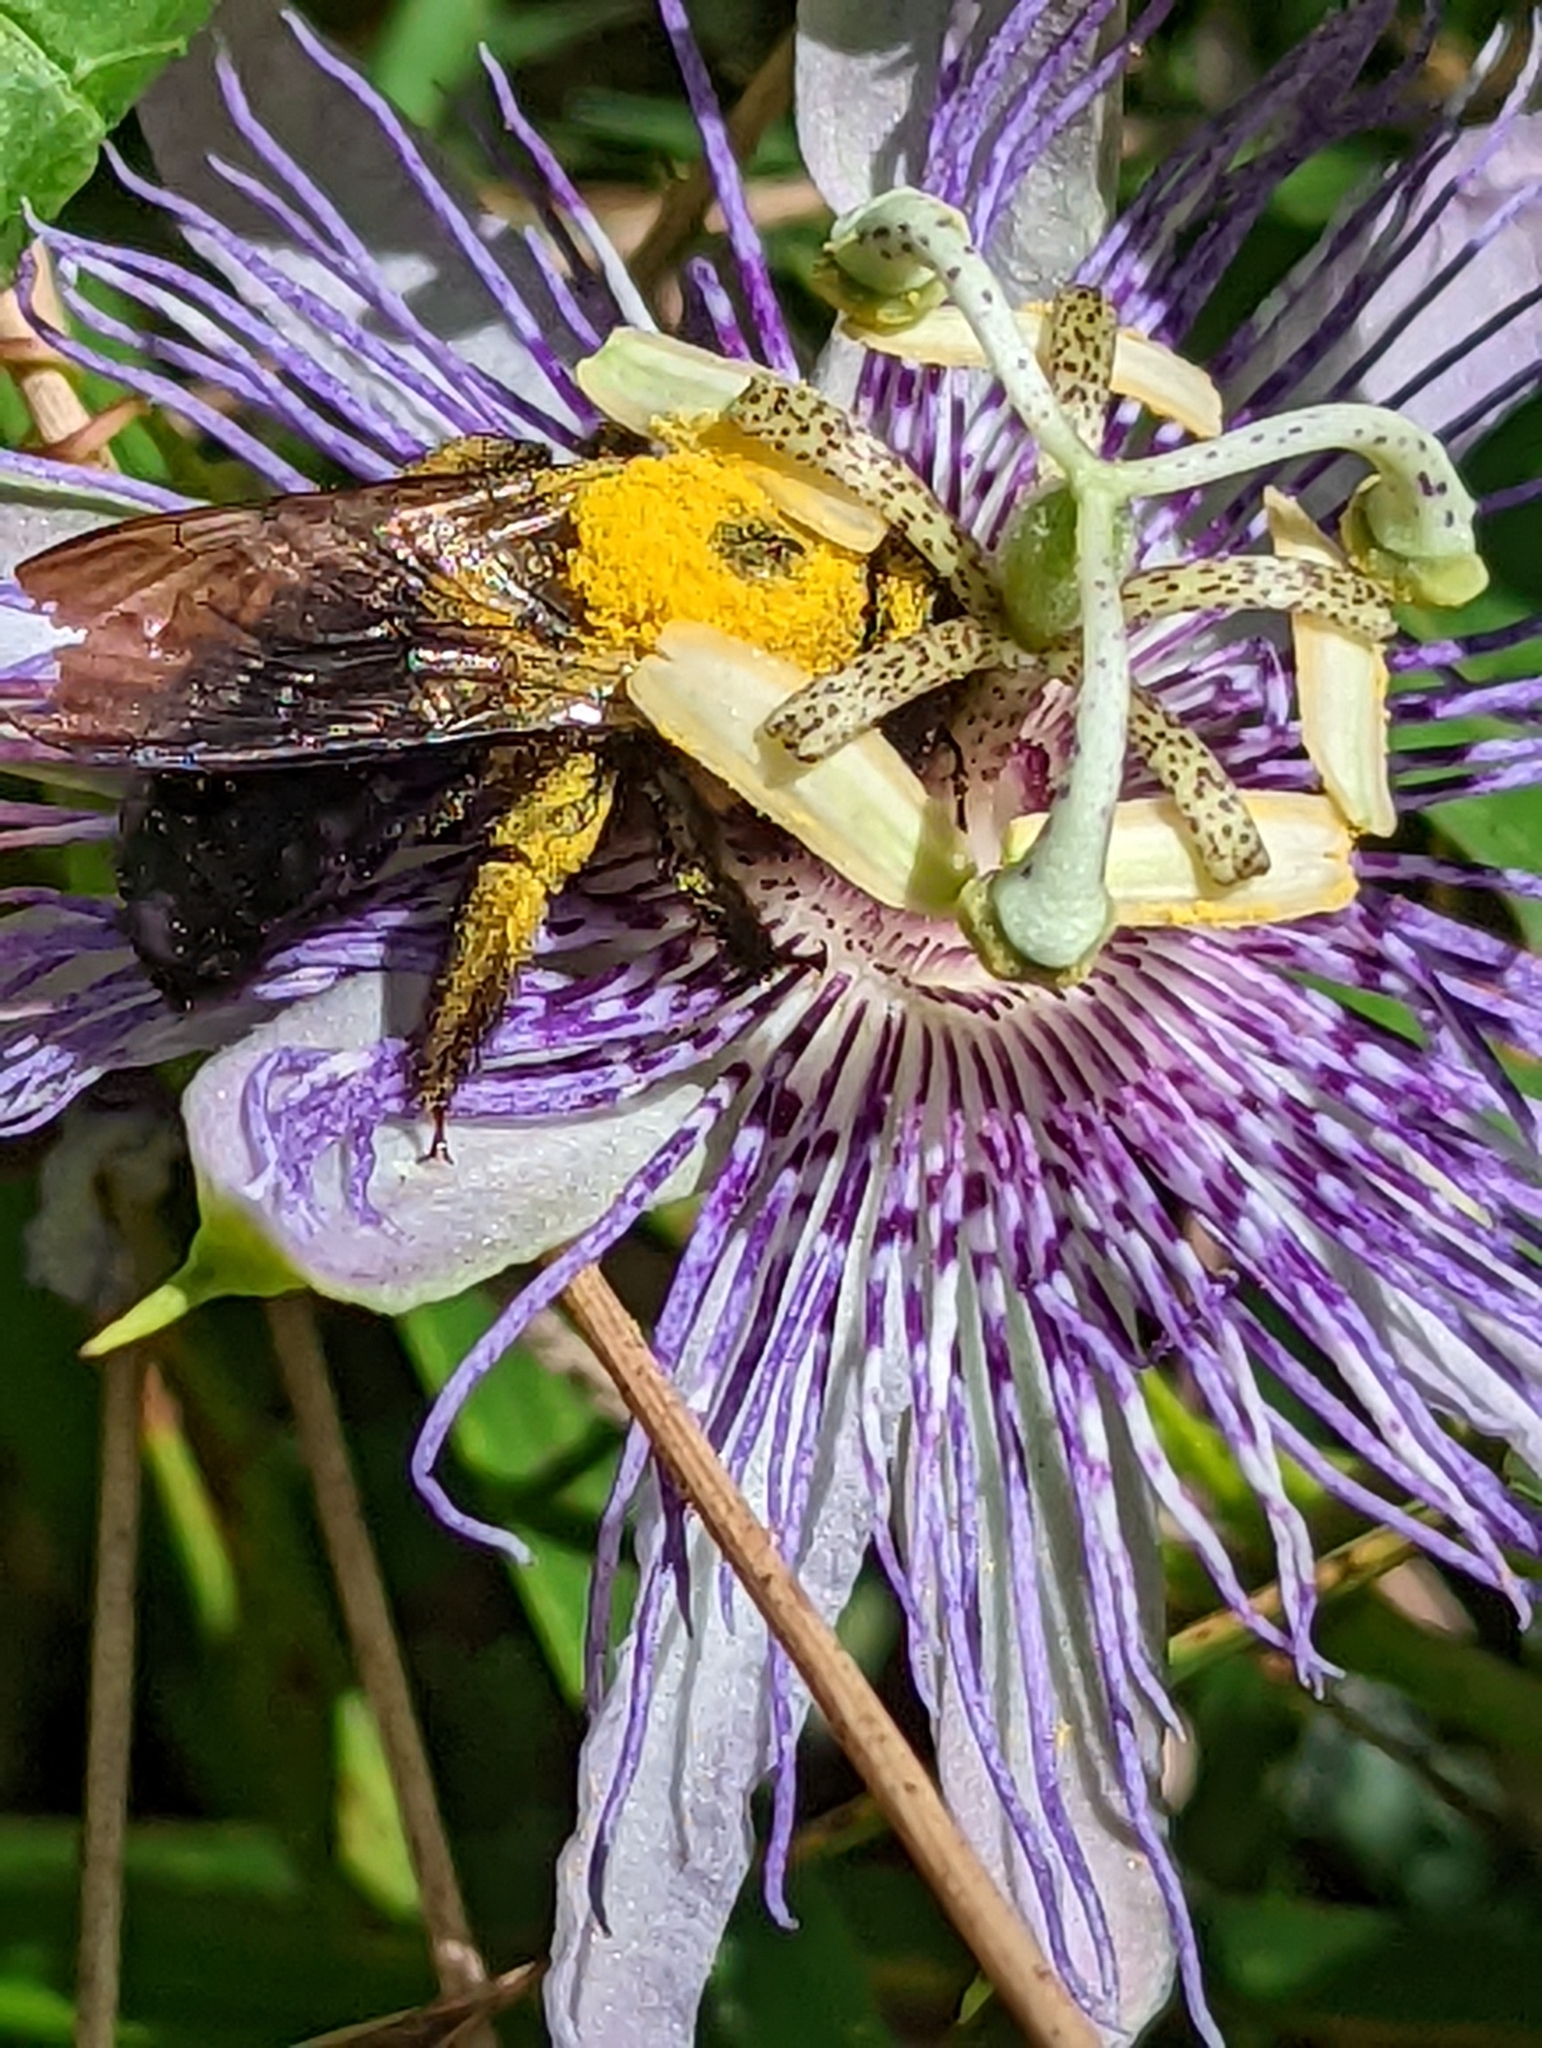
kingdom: Animalia
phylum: Arthropoda
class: Insecta
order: Hymenoptera
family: Apidae
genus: Xylocopa
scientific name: Xylocopa virginica
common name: Carpenter bee
